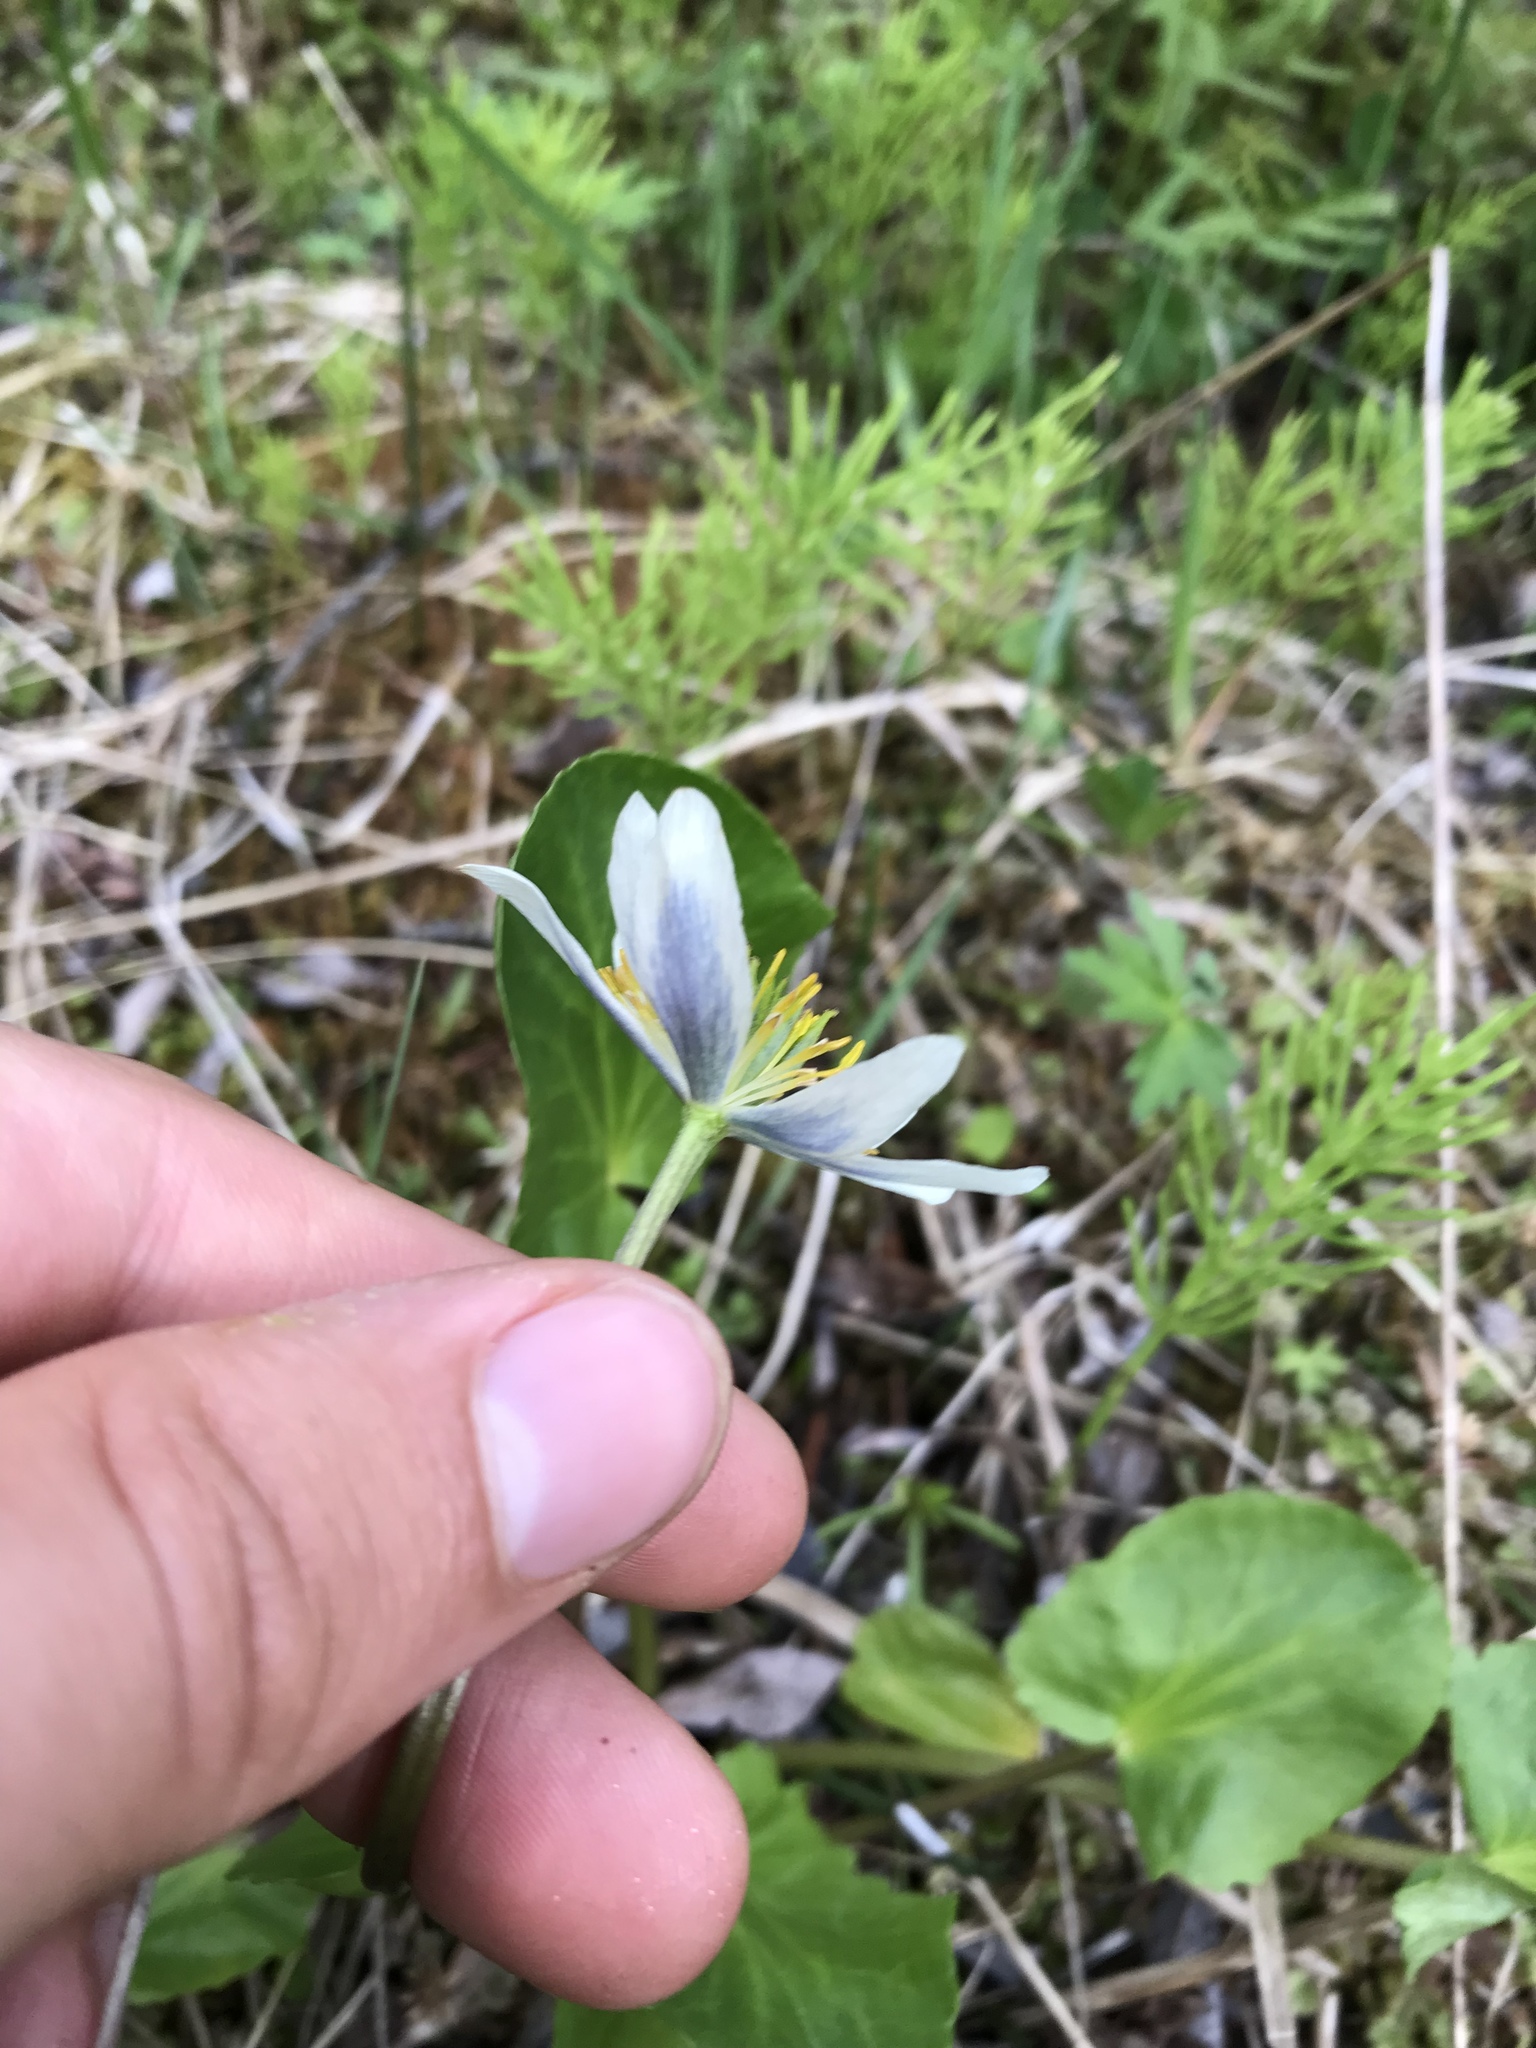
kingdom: Plantae
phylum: Tracheophyta
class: Magnoliopsida
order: Ranunculales
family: Ranunculaceae
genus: Caltha
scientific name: Caltha leptosepala
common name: Elkslip
